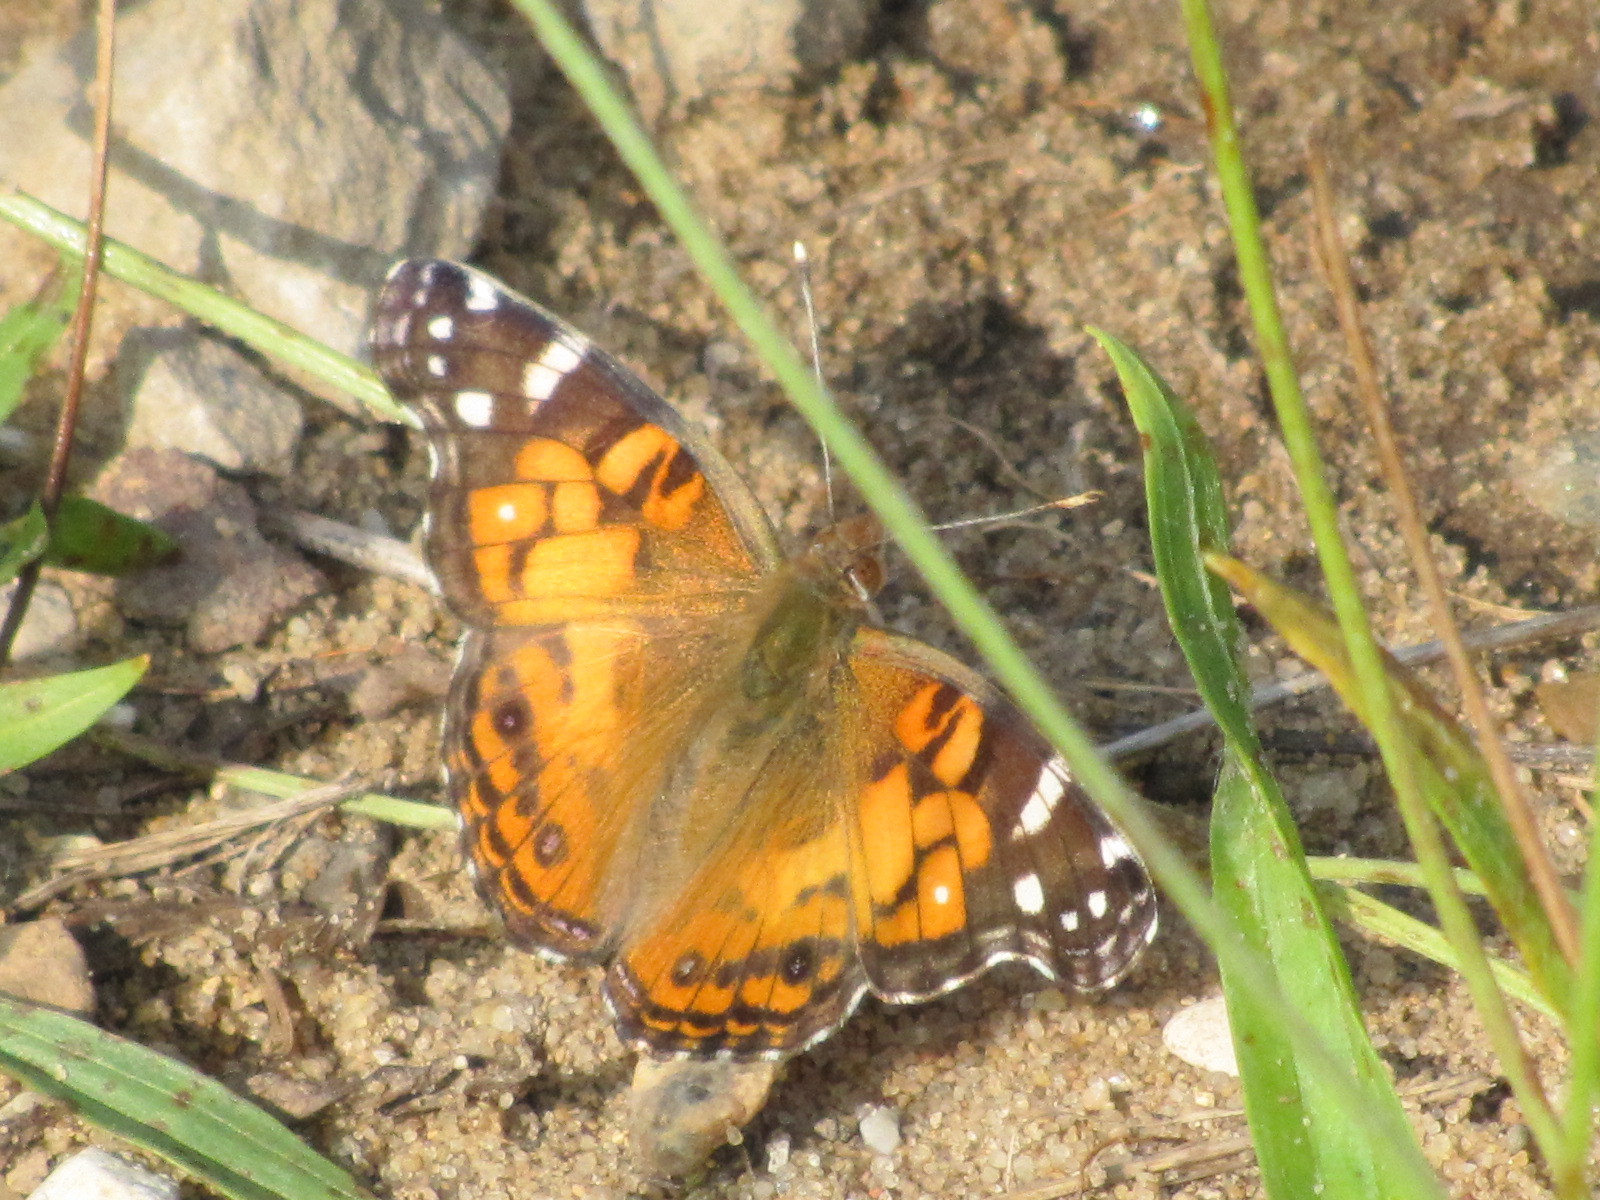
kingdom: Animalia
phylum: Arthropoda
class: Insecta
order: Lepidoptera
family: Nymphalidae
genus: Vanessa
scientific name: Vanessa virginiensis
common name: American lady
